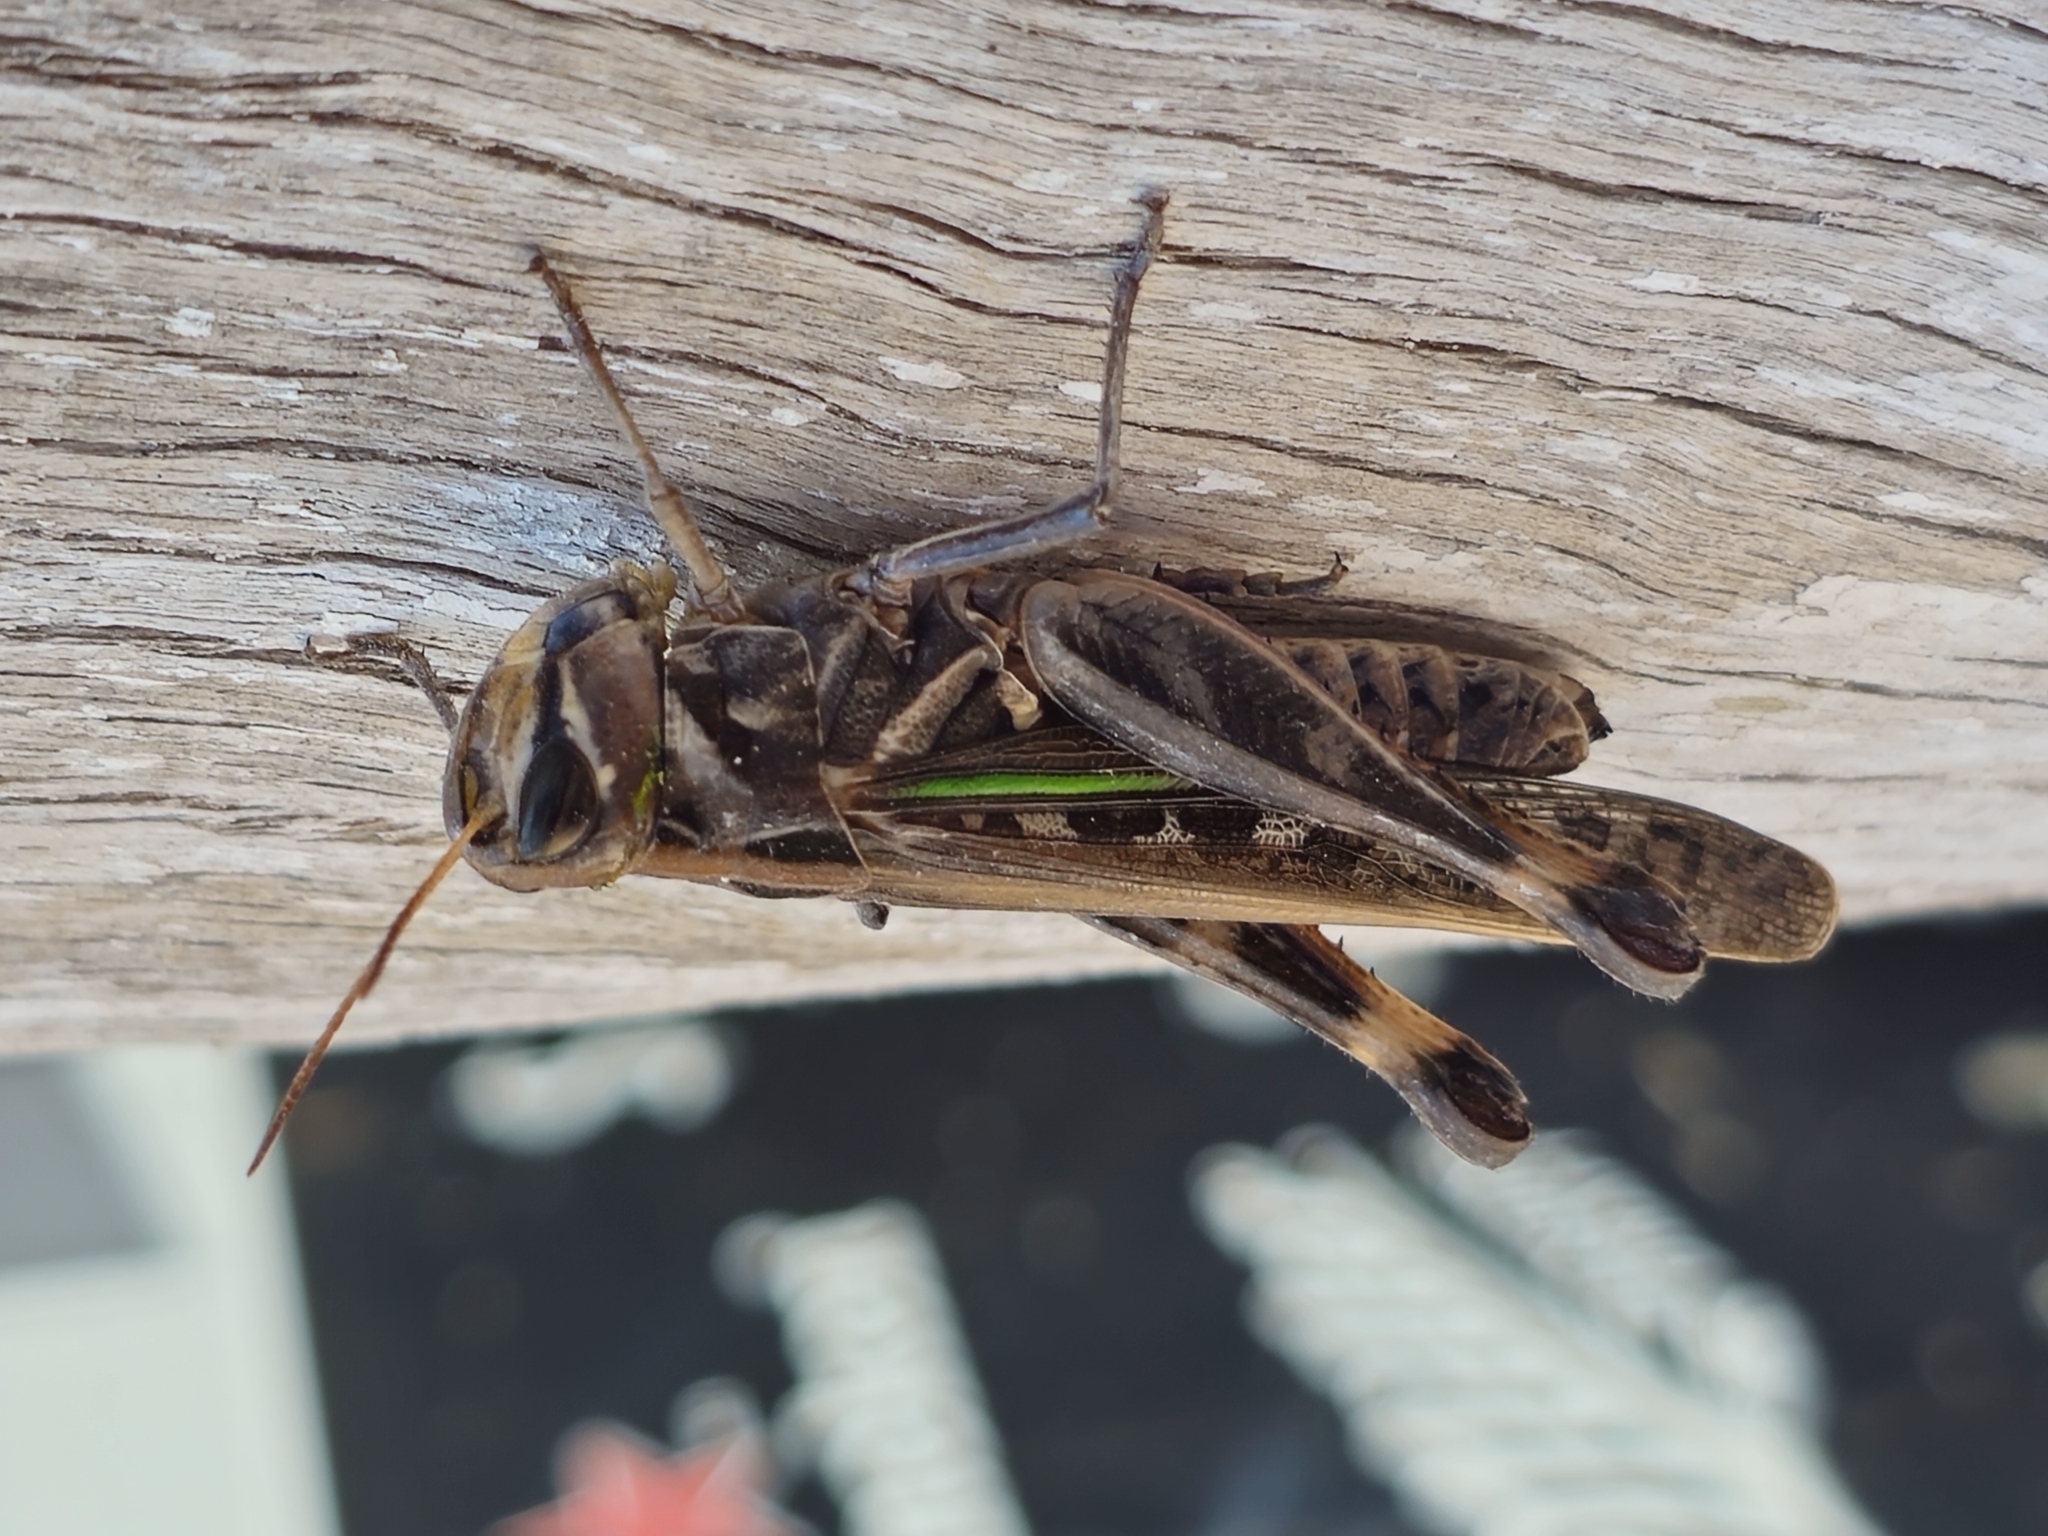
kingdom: Animalia
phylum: Arthropoda
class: Insecta
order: Orthoptera
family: Acrididae
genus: Rhammatocerus
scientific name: Rhammatocerus pictus
